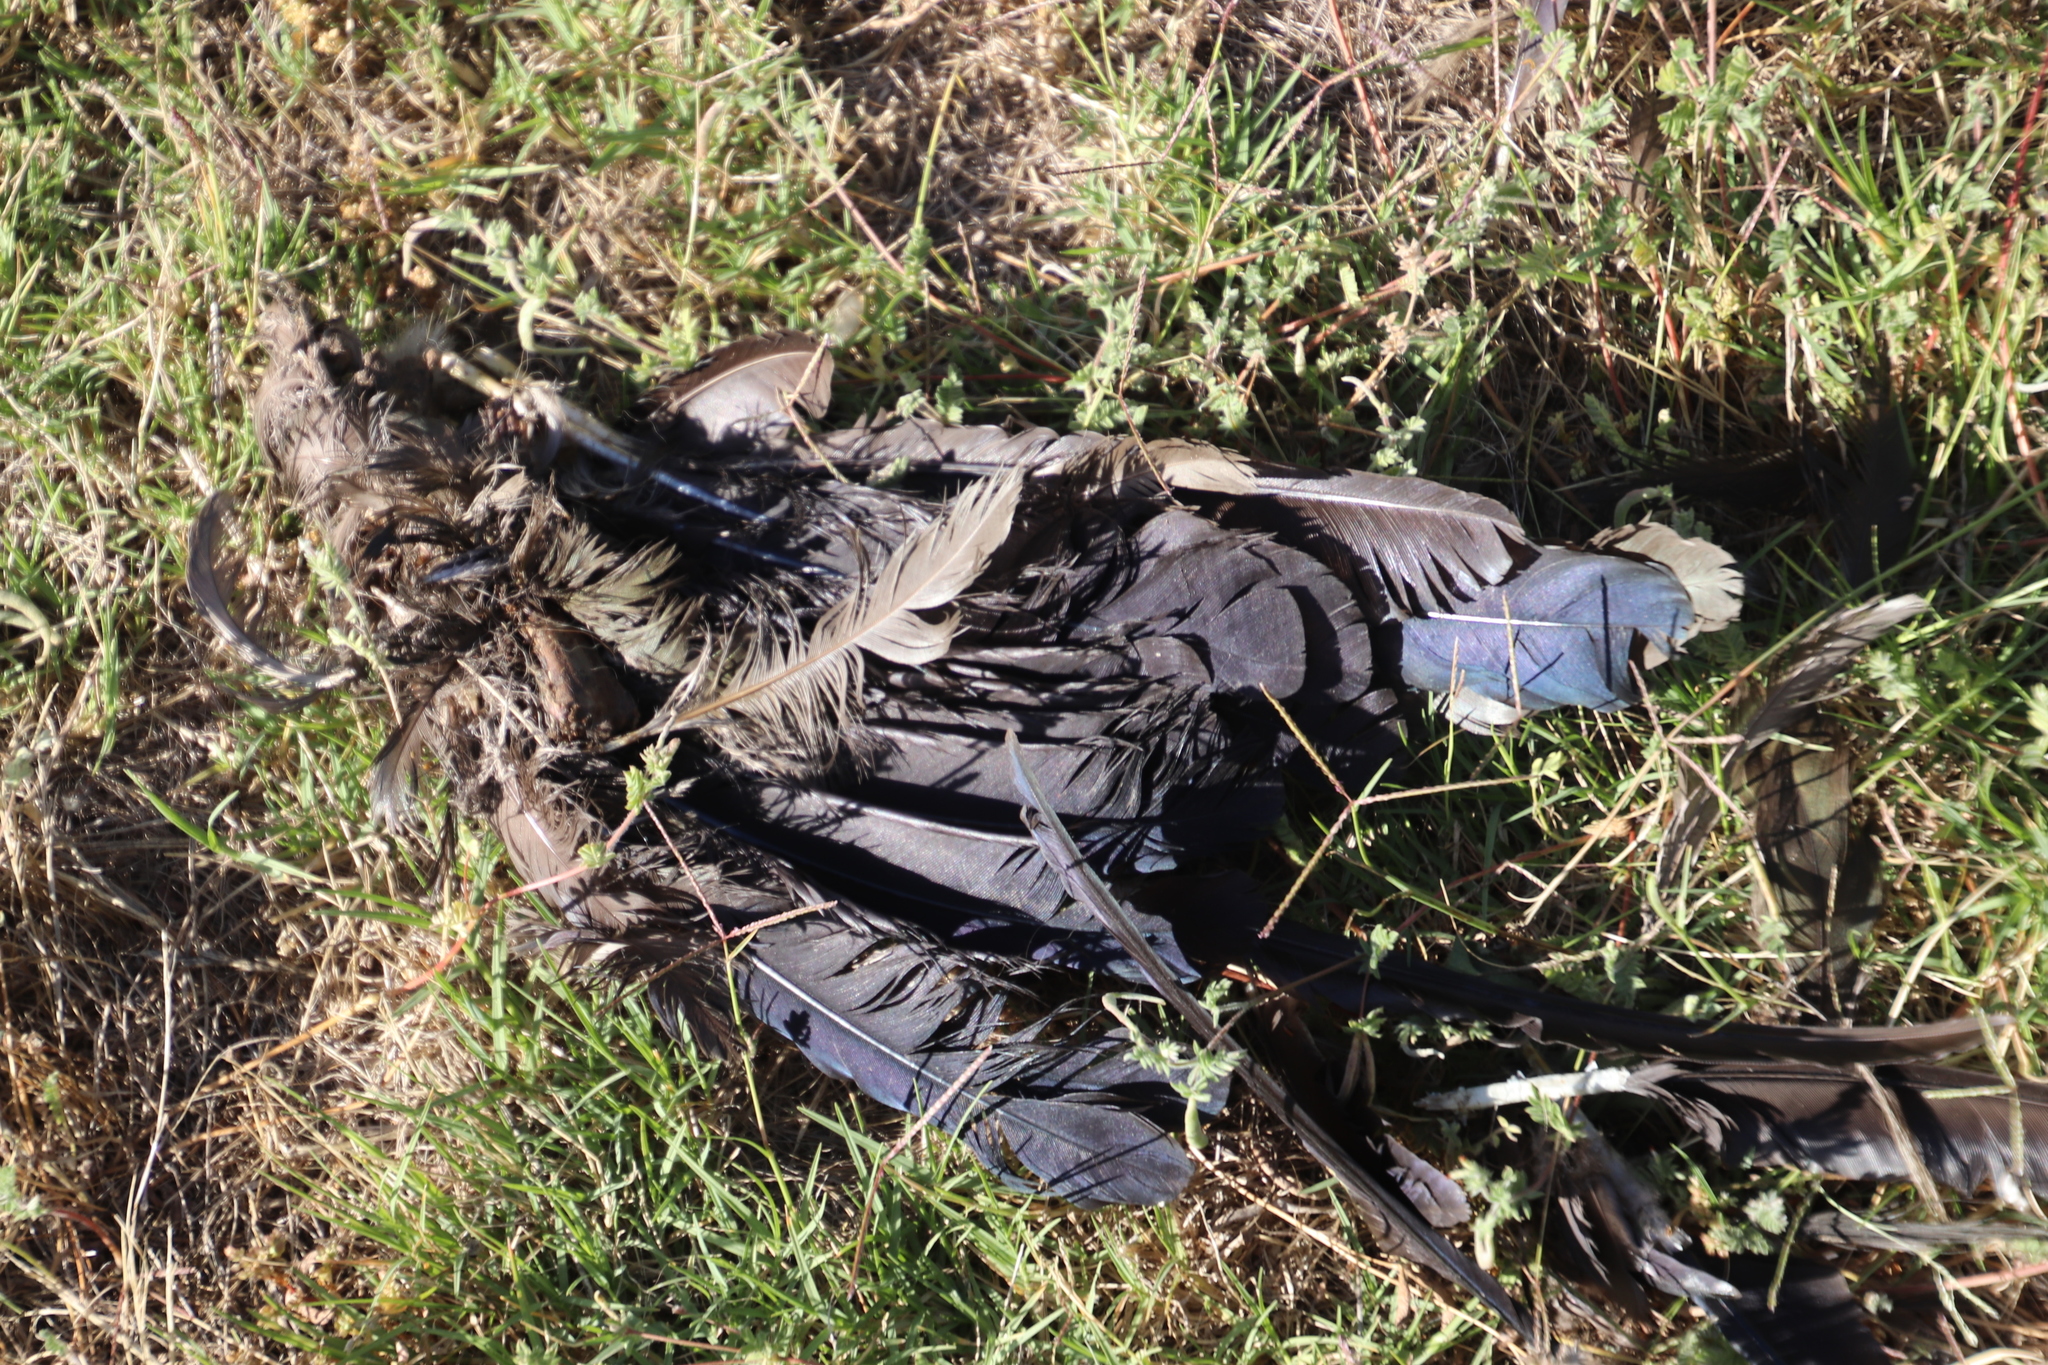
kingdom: Animalia
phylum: Chordata
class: Aves
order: Pelecaniformes
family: Threskiornithidae
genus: Bostrychia
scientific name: Bostrychia hagedash
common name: Hadada ibis
